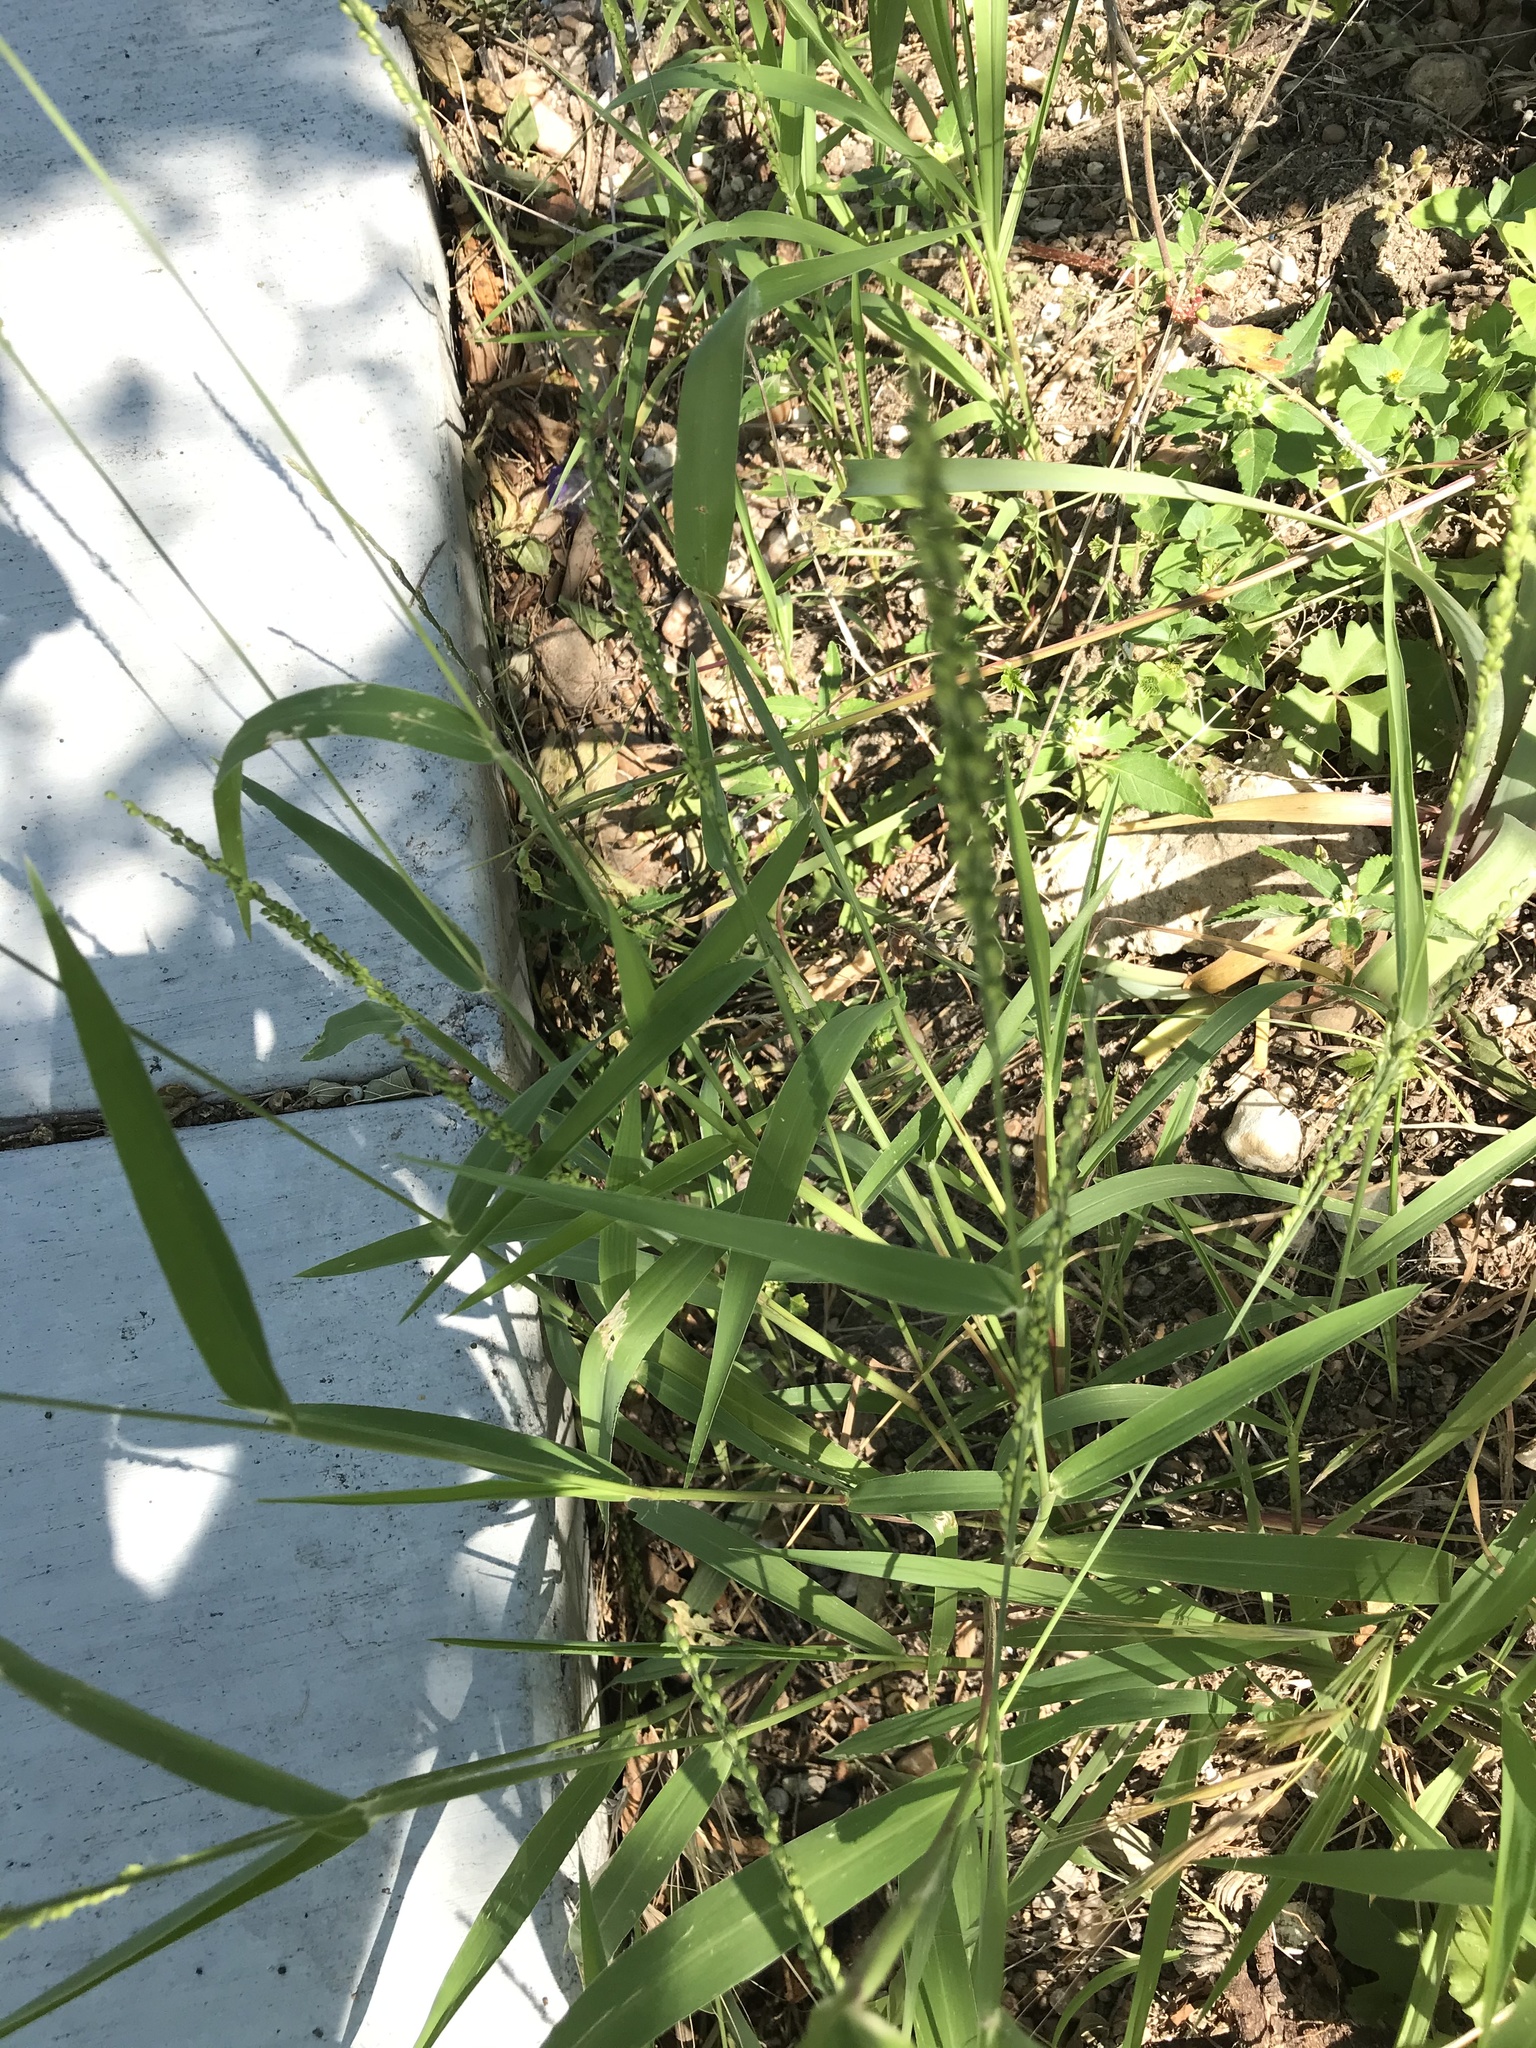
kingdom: Plantae
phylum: Tracheophyta
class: Liliopsida
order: Poales
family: Poaceae
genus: Urochloa
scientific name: Urochloa texana
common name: Texas millet
